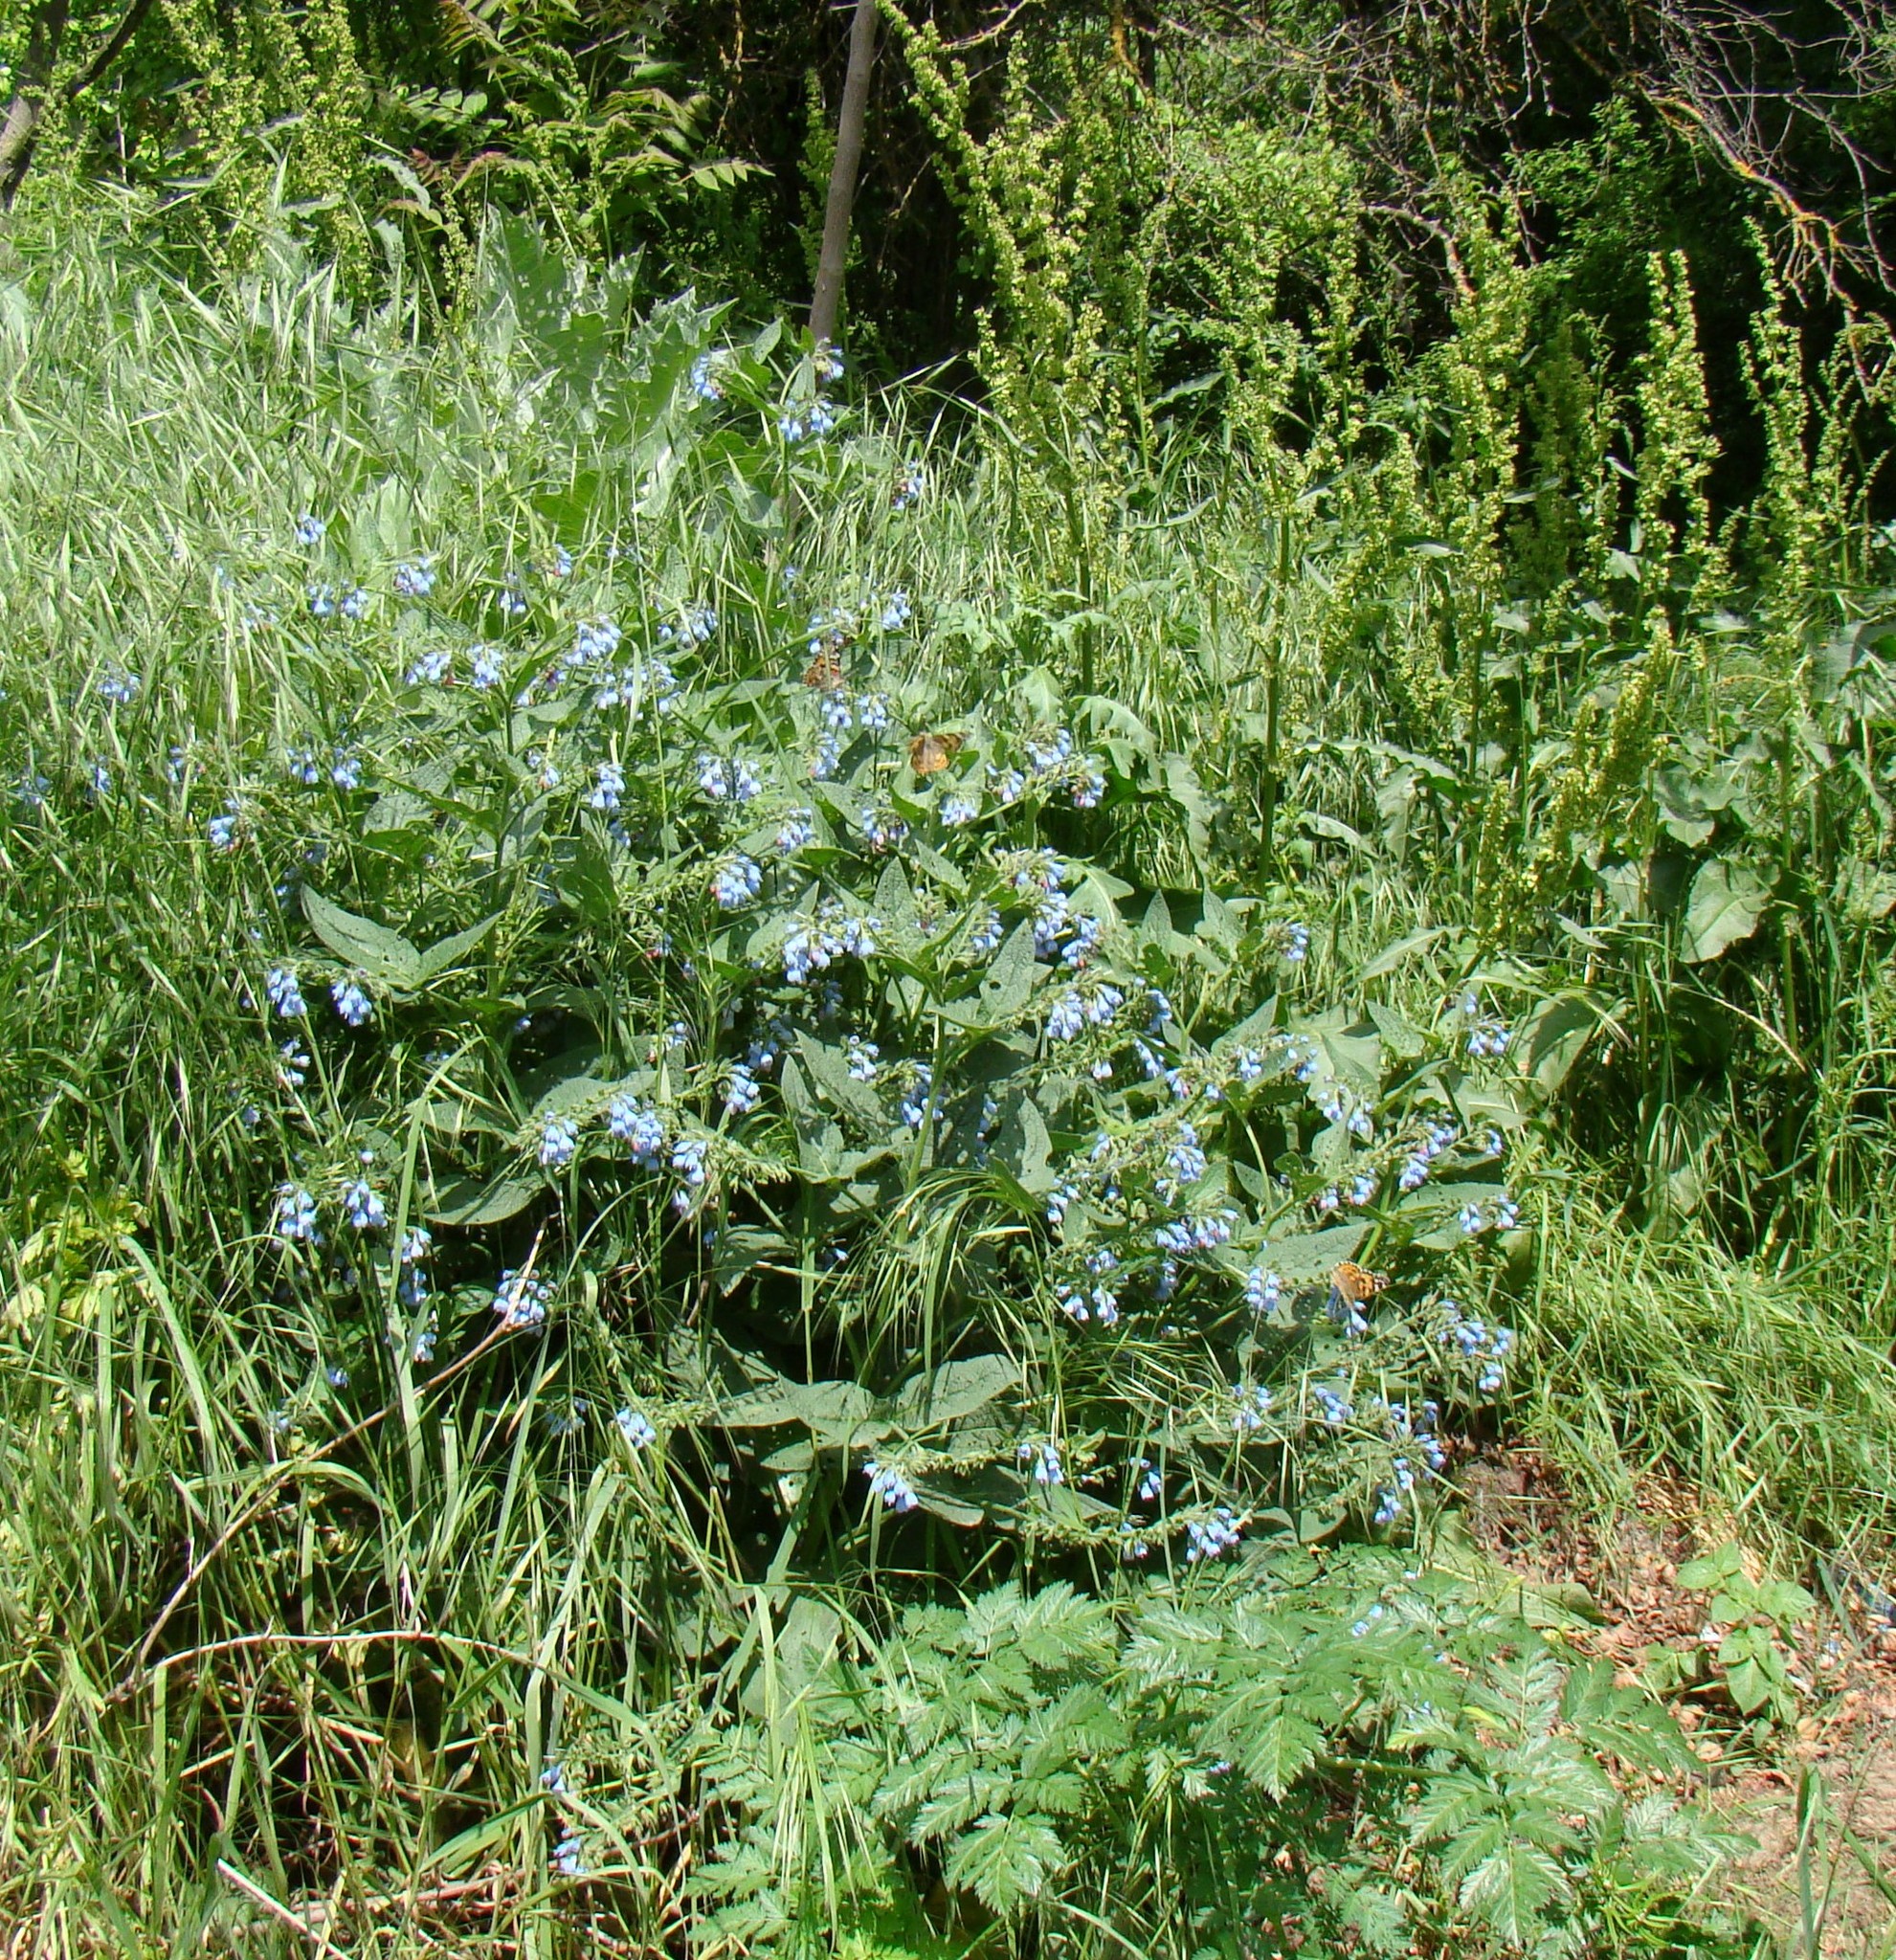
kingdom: Plantae
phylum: Tracheophyta
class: Magnoliopsida
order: Boraginales
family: Boraginaceae
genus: Symphytum
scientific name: Symphytum caucasicum
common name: Caucasian comfrey
